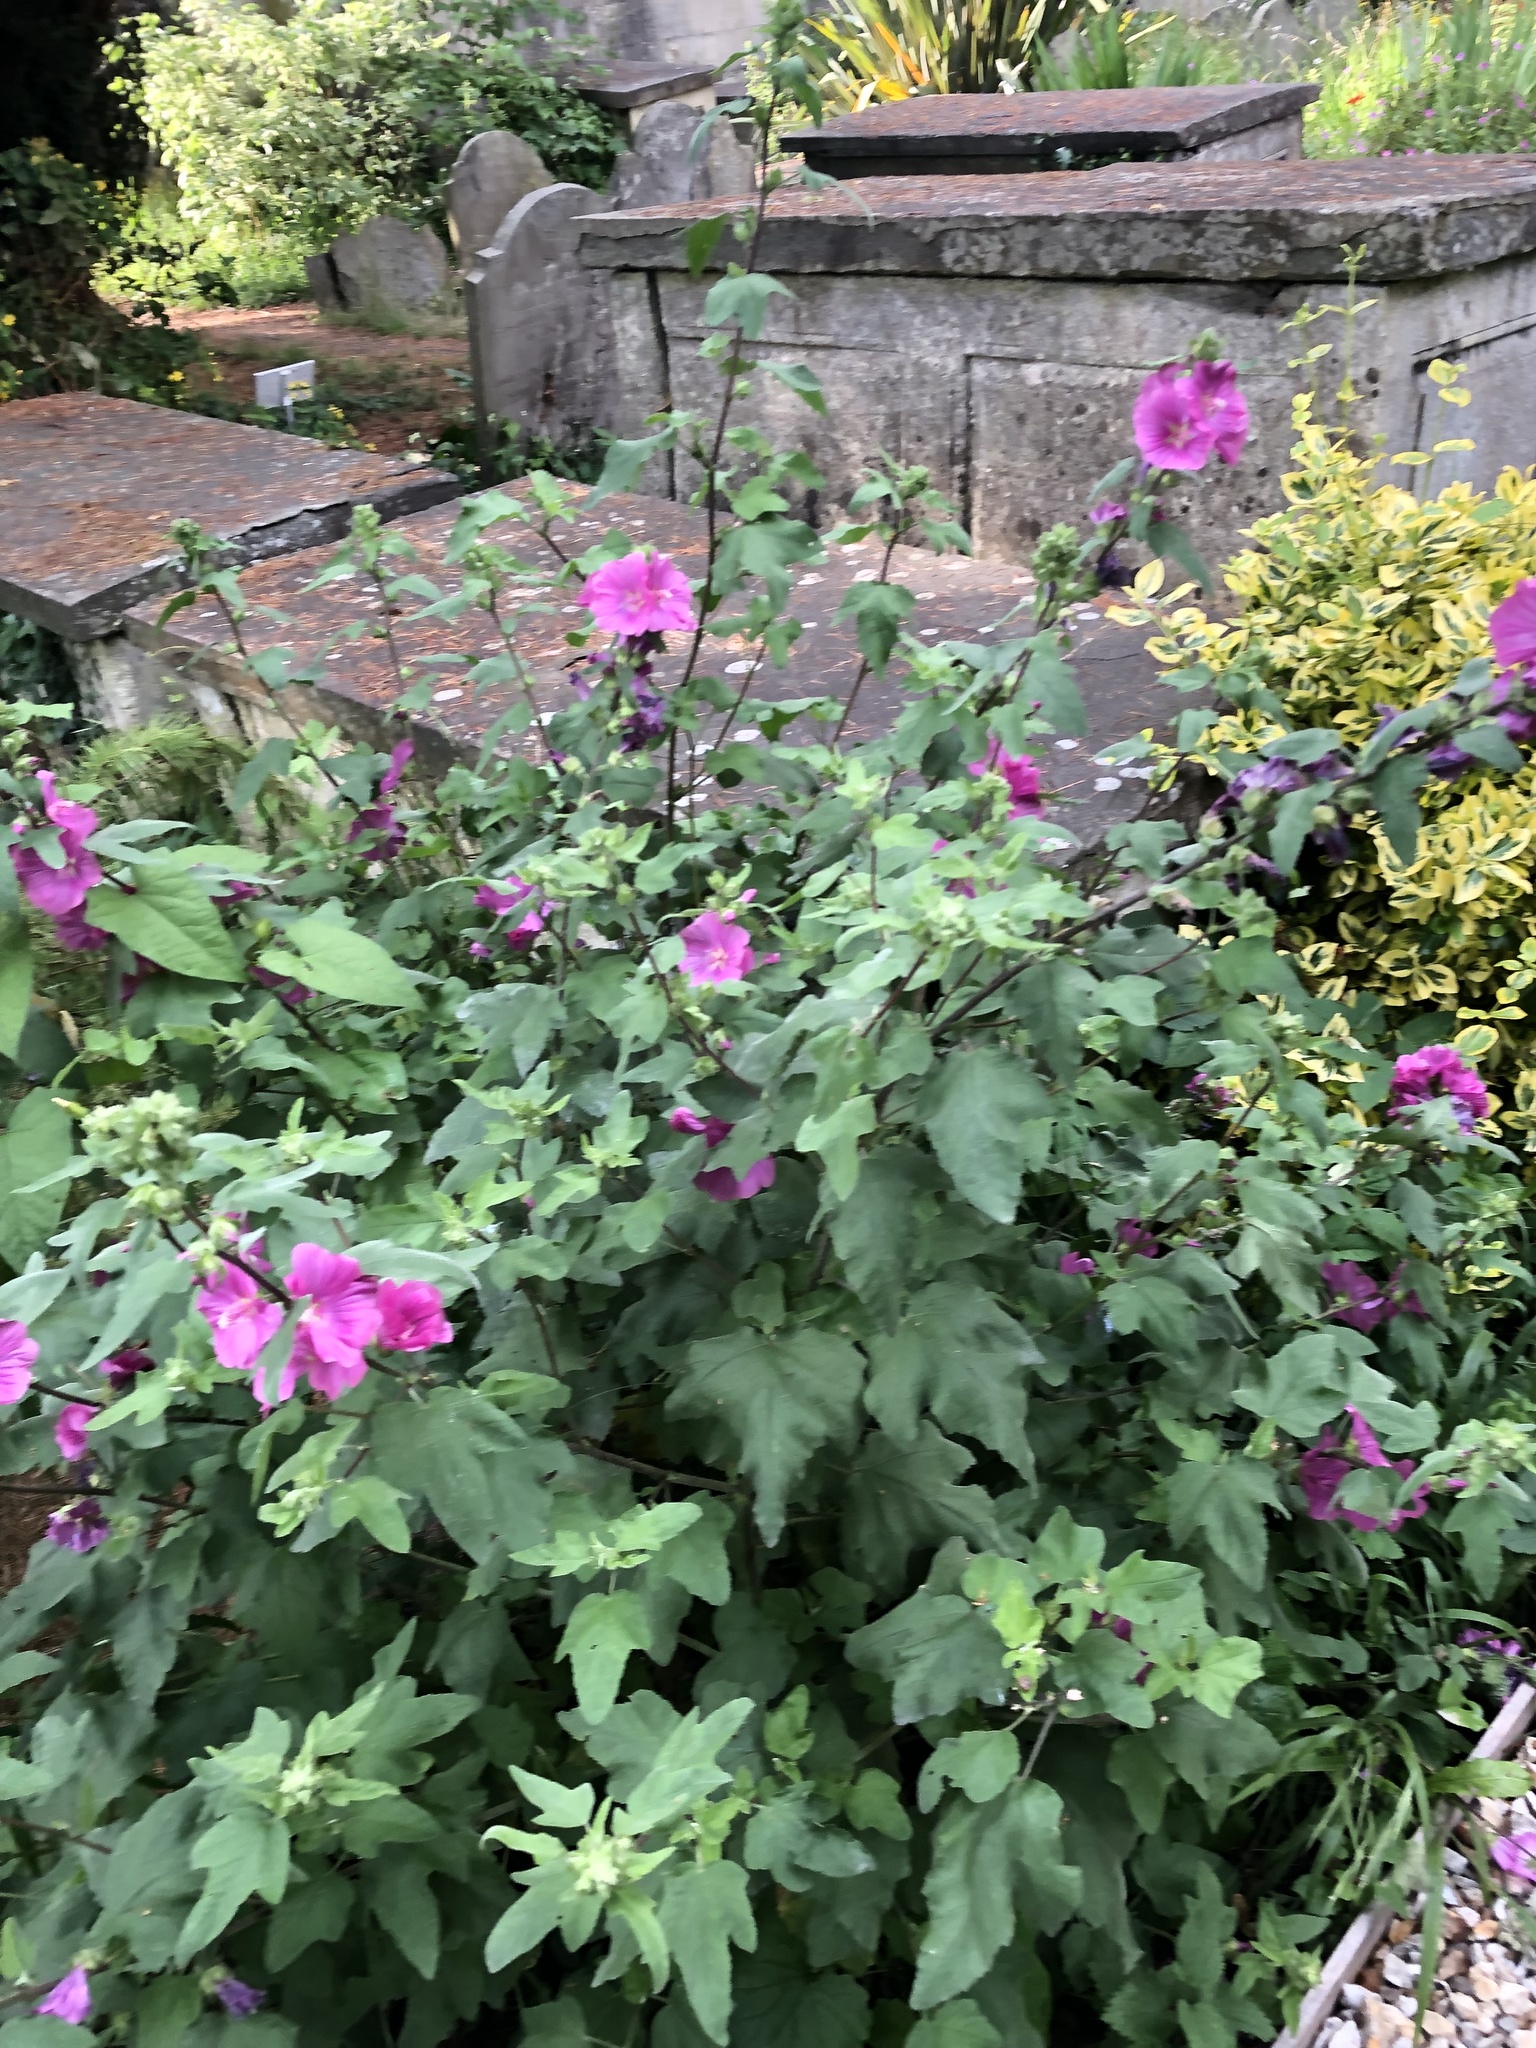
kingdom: Plantae
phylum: Tracheophyta
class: Magnoliopsida
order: Malvales
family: Malvaceae
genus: Malva
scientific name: Malva clementii
